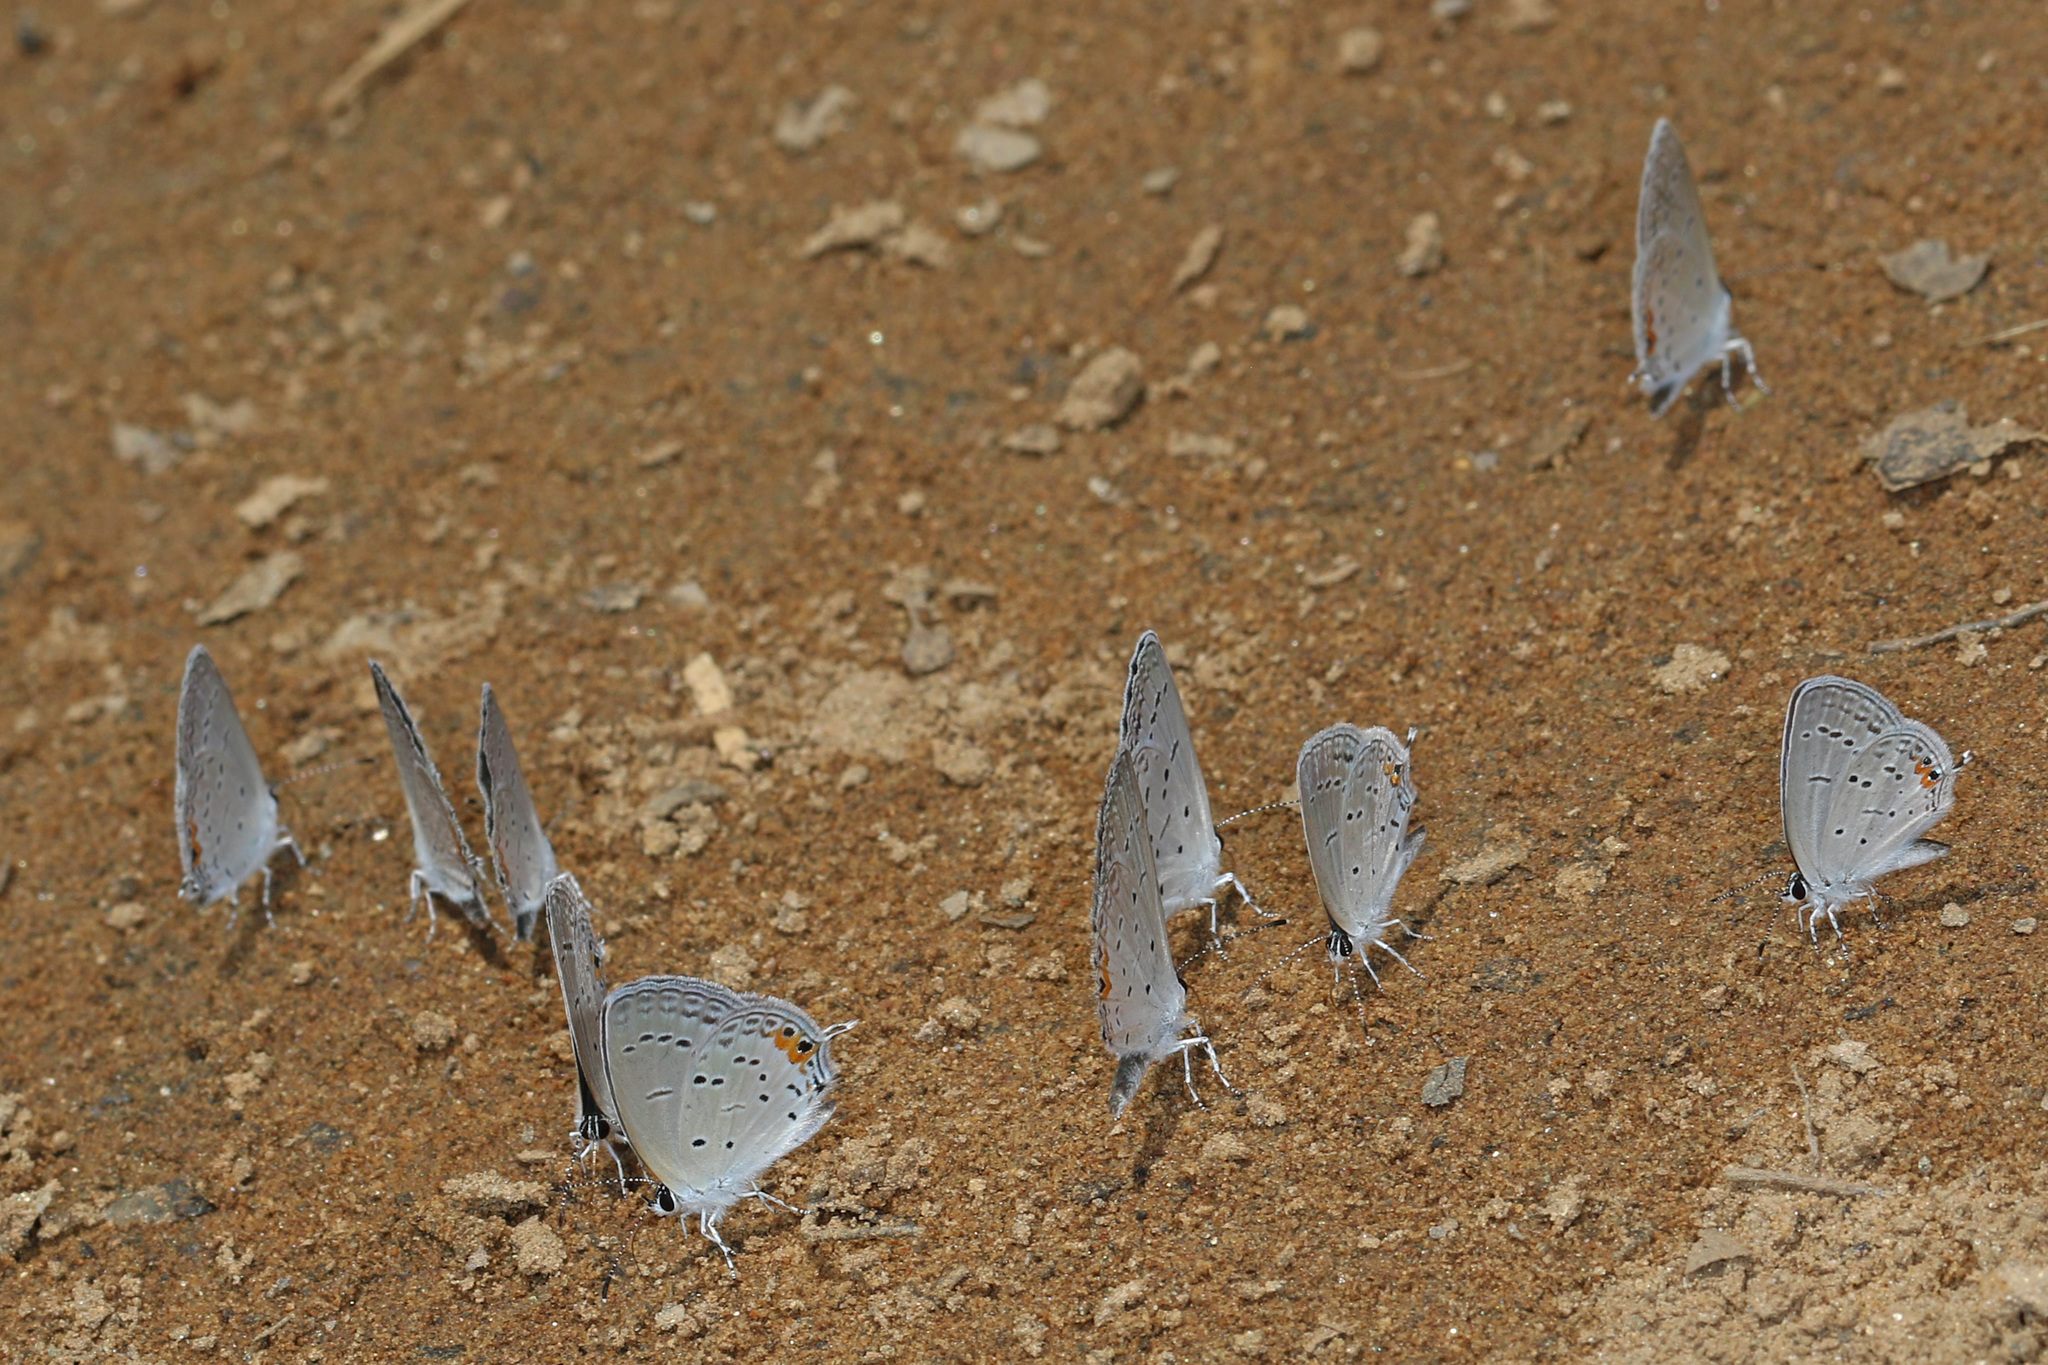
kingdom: Animalia
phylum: Arthropoda
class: Insecta
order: Lepidoptera
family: Lycaenidae
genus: Elkalyce
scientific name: Elkalyce comyntas
